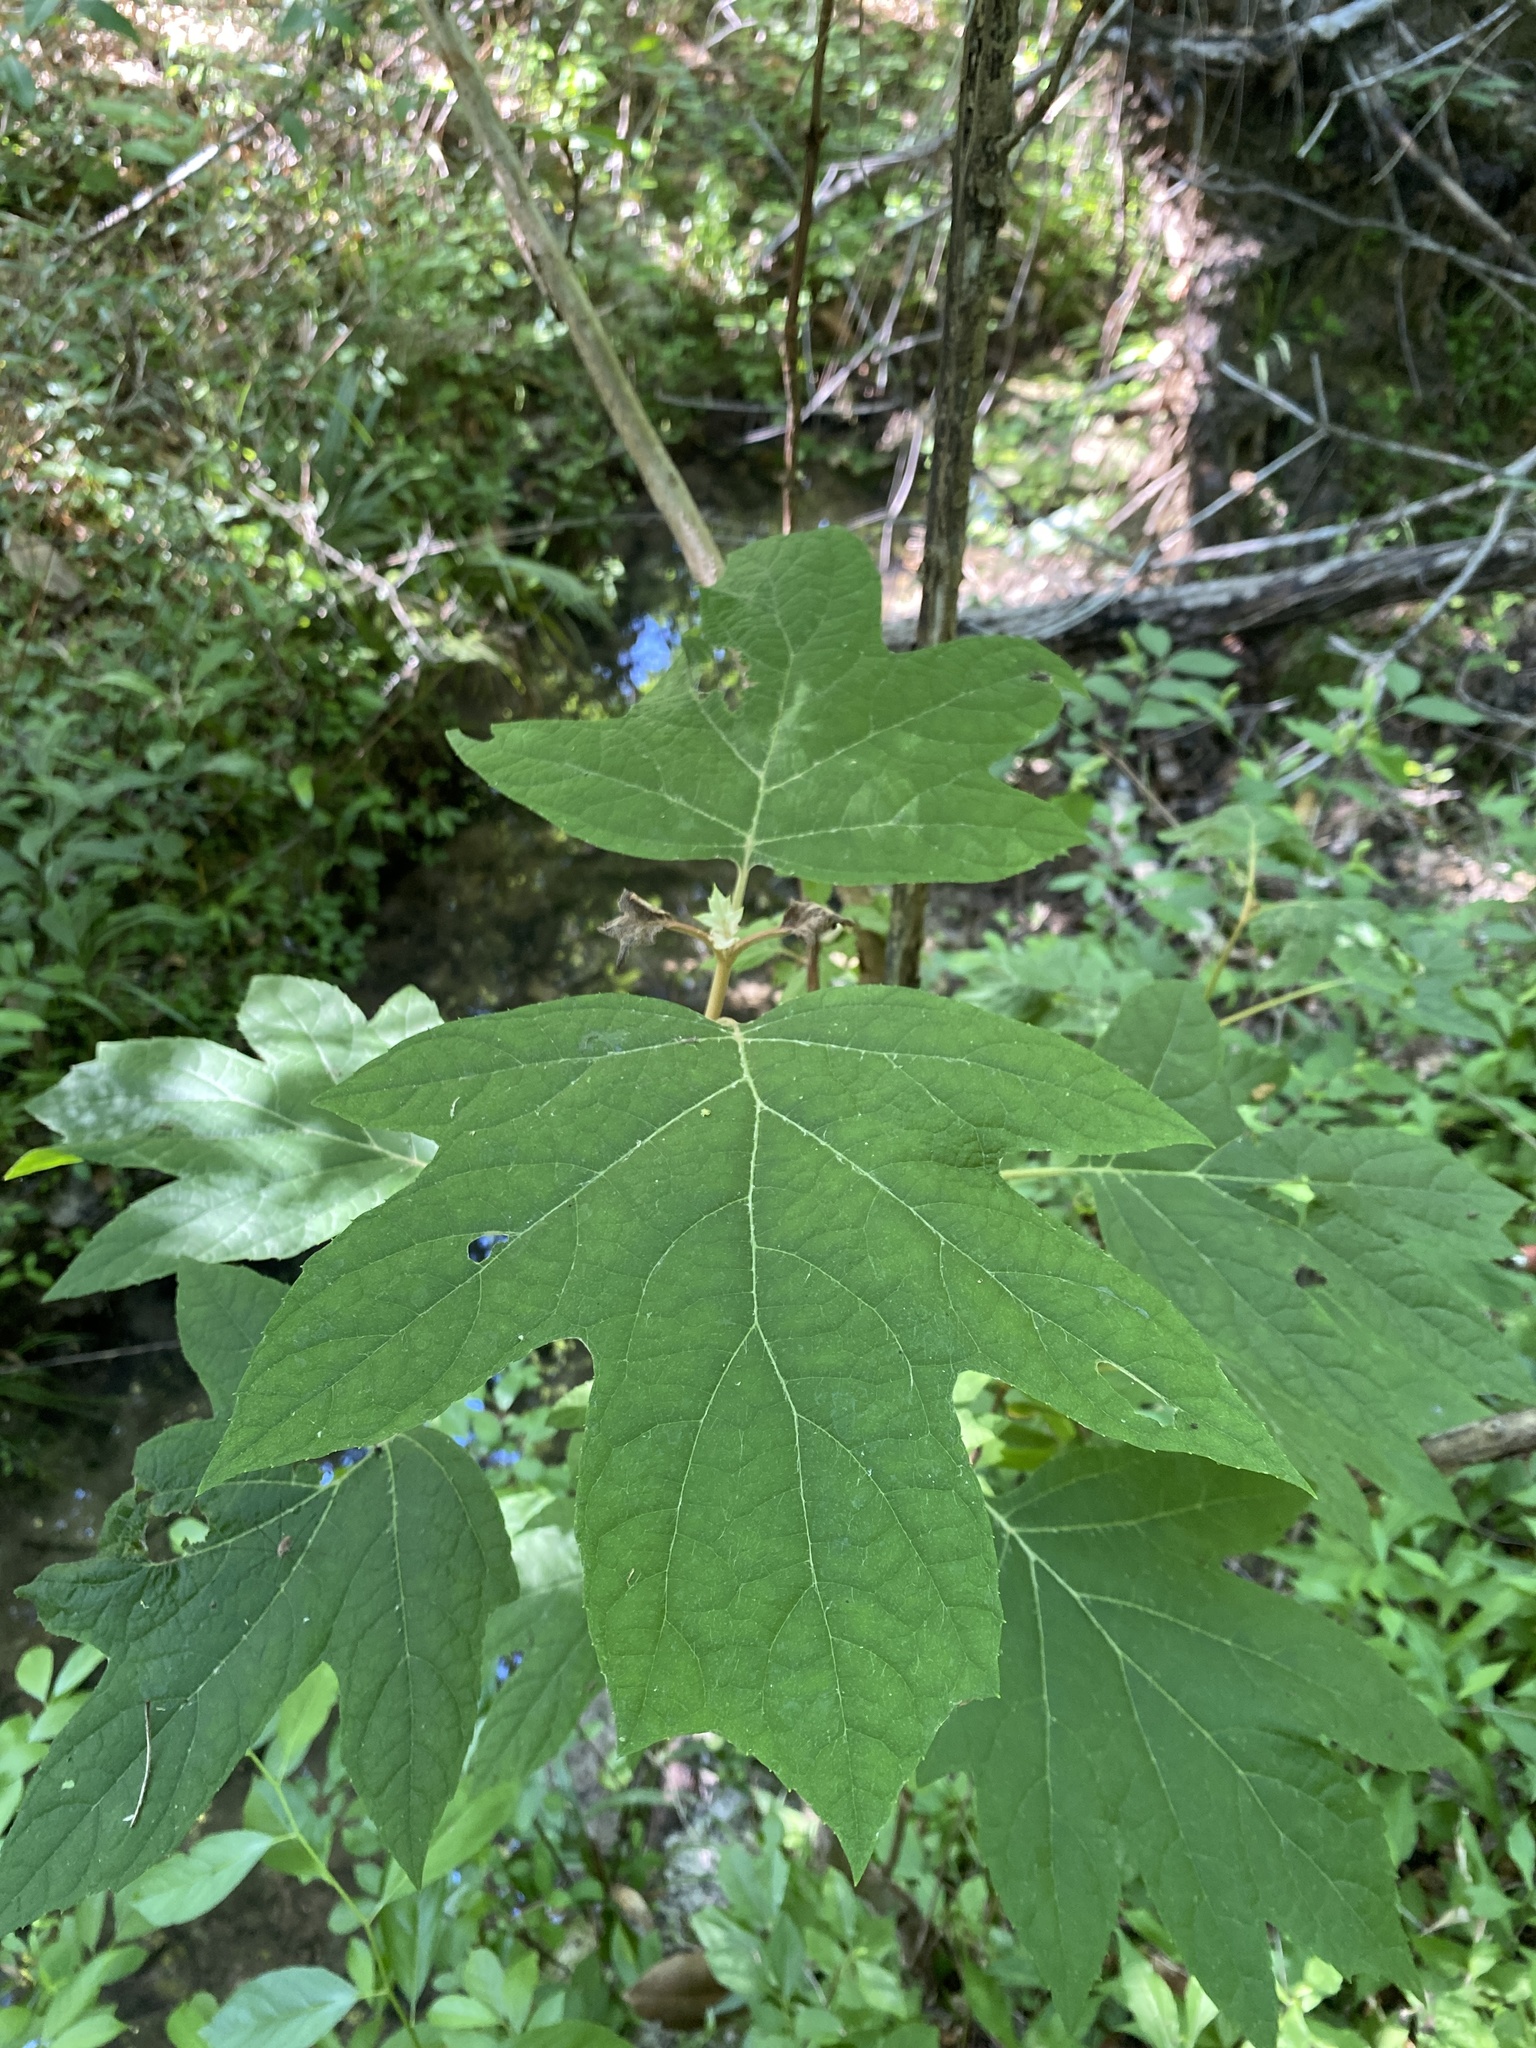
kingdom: Plantae
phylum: Tracheophyta
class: Magnoliopsida
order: Cornales
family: Hydrangeaceae
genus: Hydrangea
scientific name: Hydrangea quercifolia
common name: Oak-leaf hydrangea
